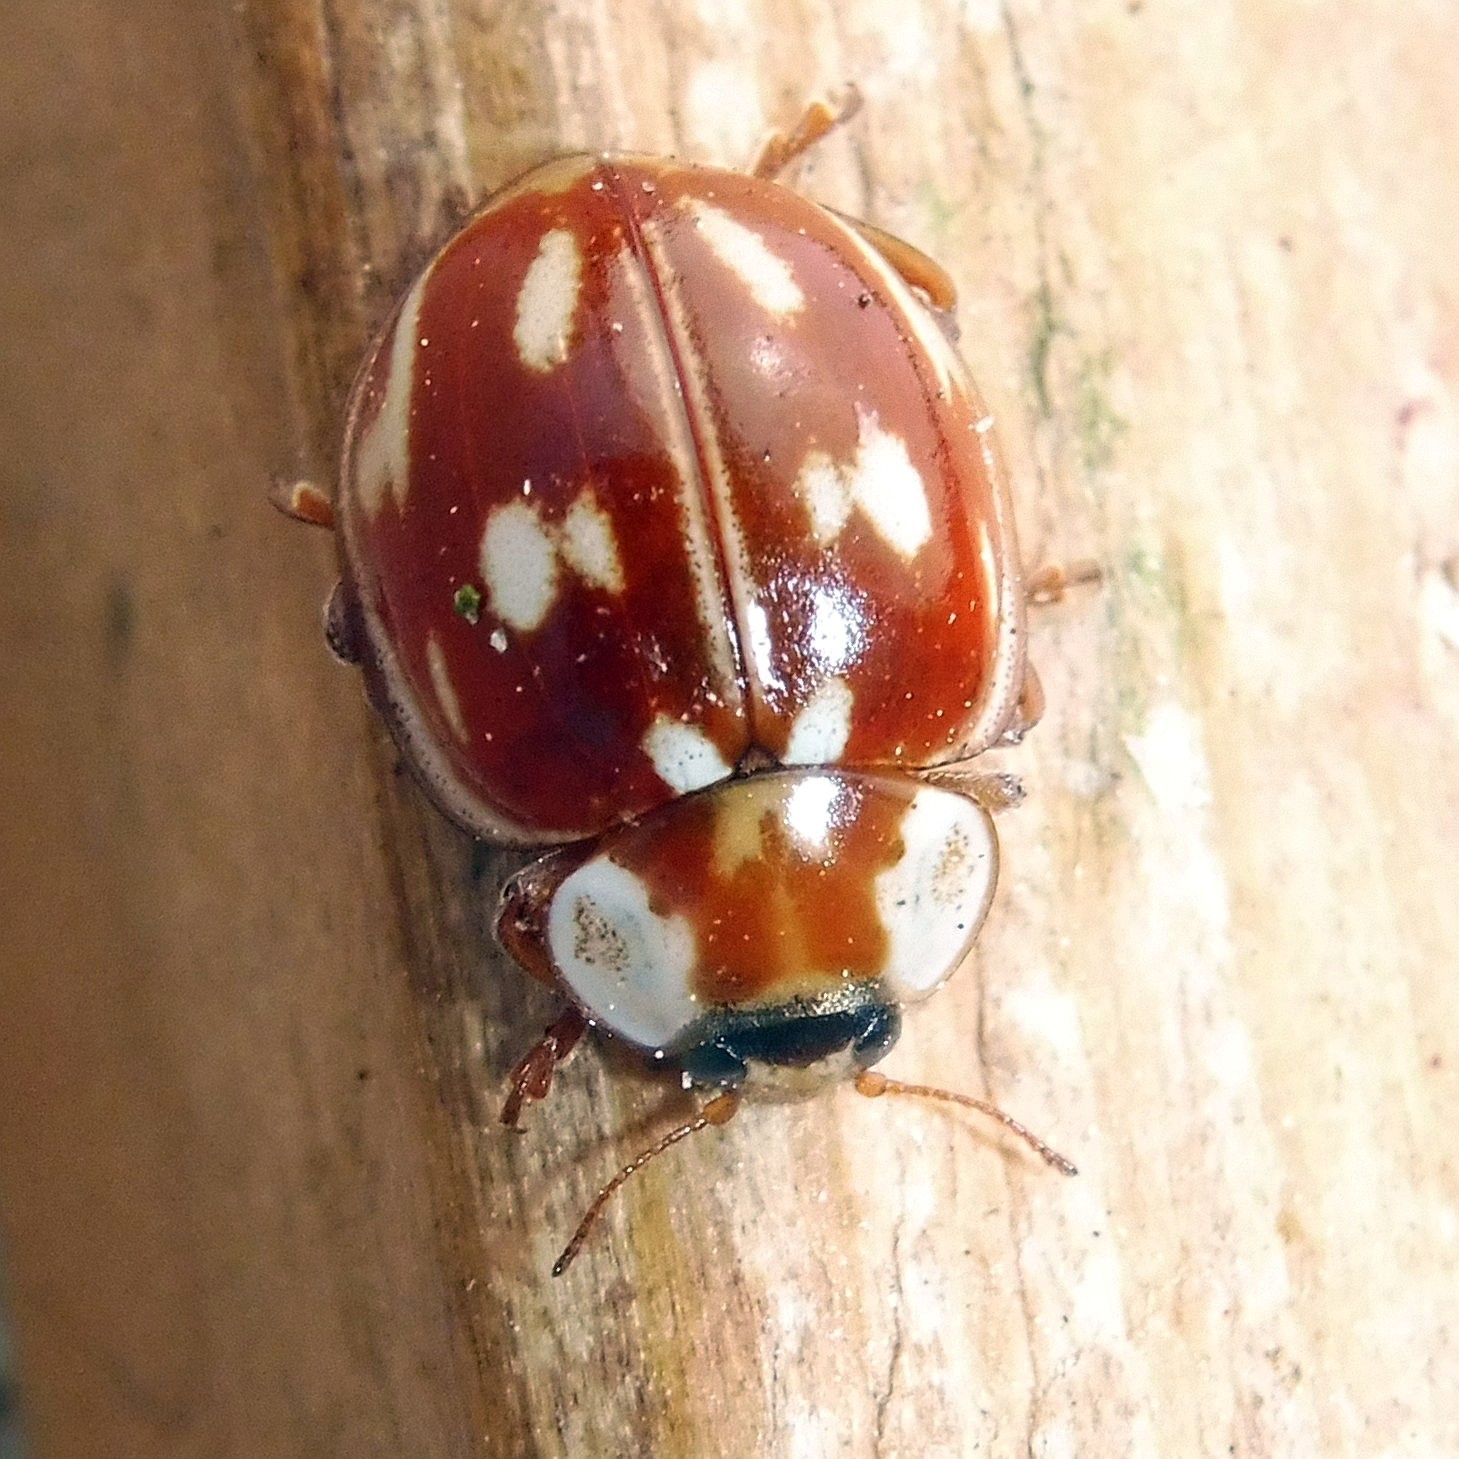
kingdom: Animalia
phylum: Arthropoda
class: Insecta
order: Coleoptera
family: Coccinellidae
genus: Myzia
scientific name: Myzia oblongoguttata
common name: Striped ladybird
